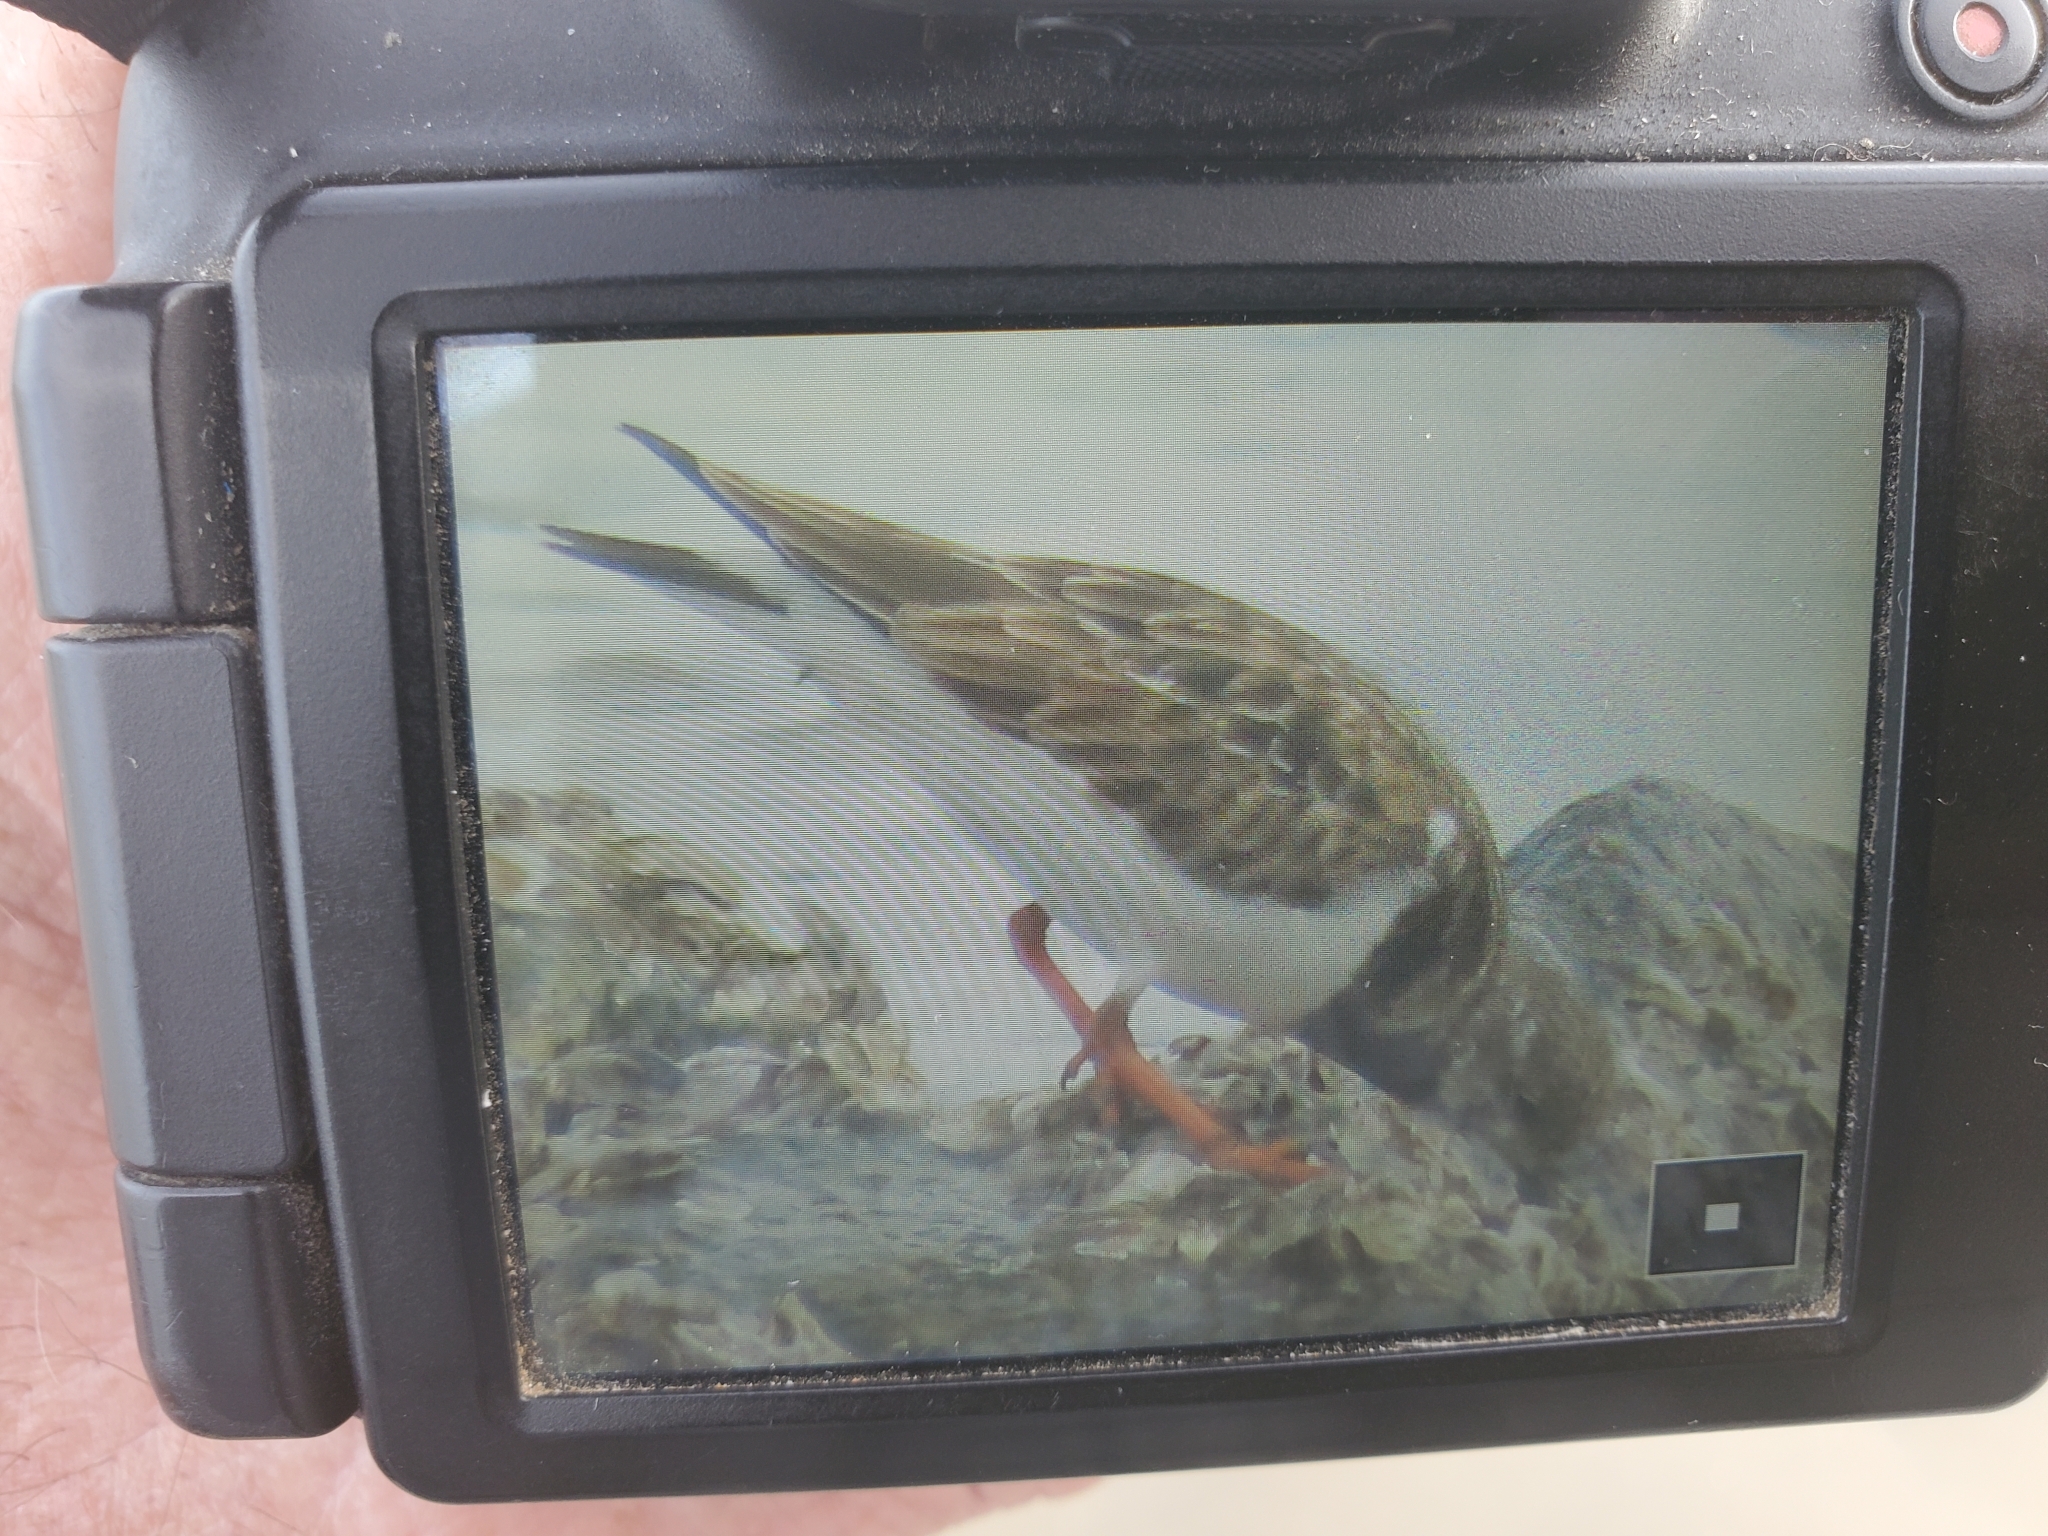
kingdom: Animalia
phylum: Chordata
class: Aves
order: Charadriiformes
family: Scolopacidae
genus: Arenaria
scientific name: Arenaria interpres
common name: Ruddy turnstone
